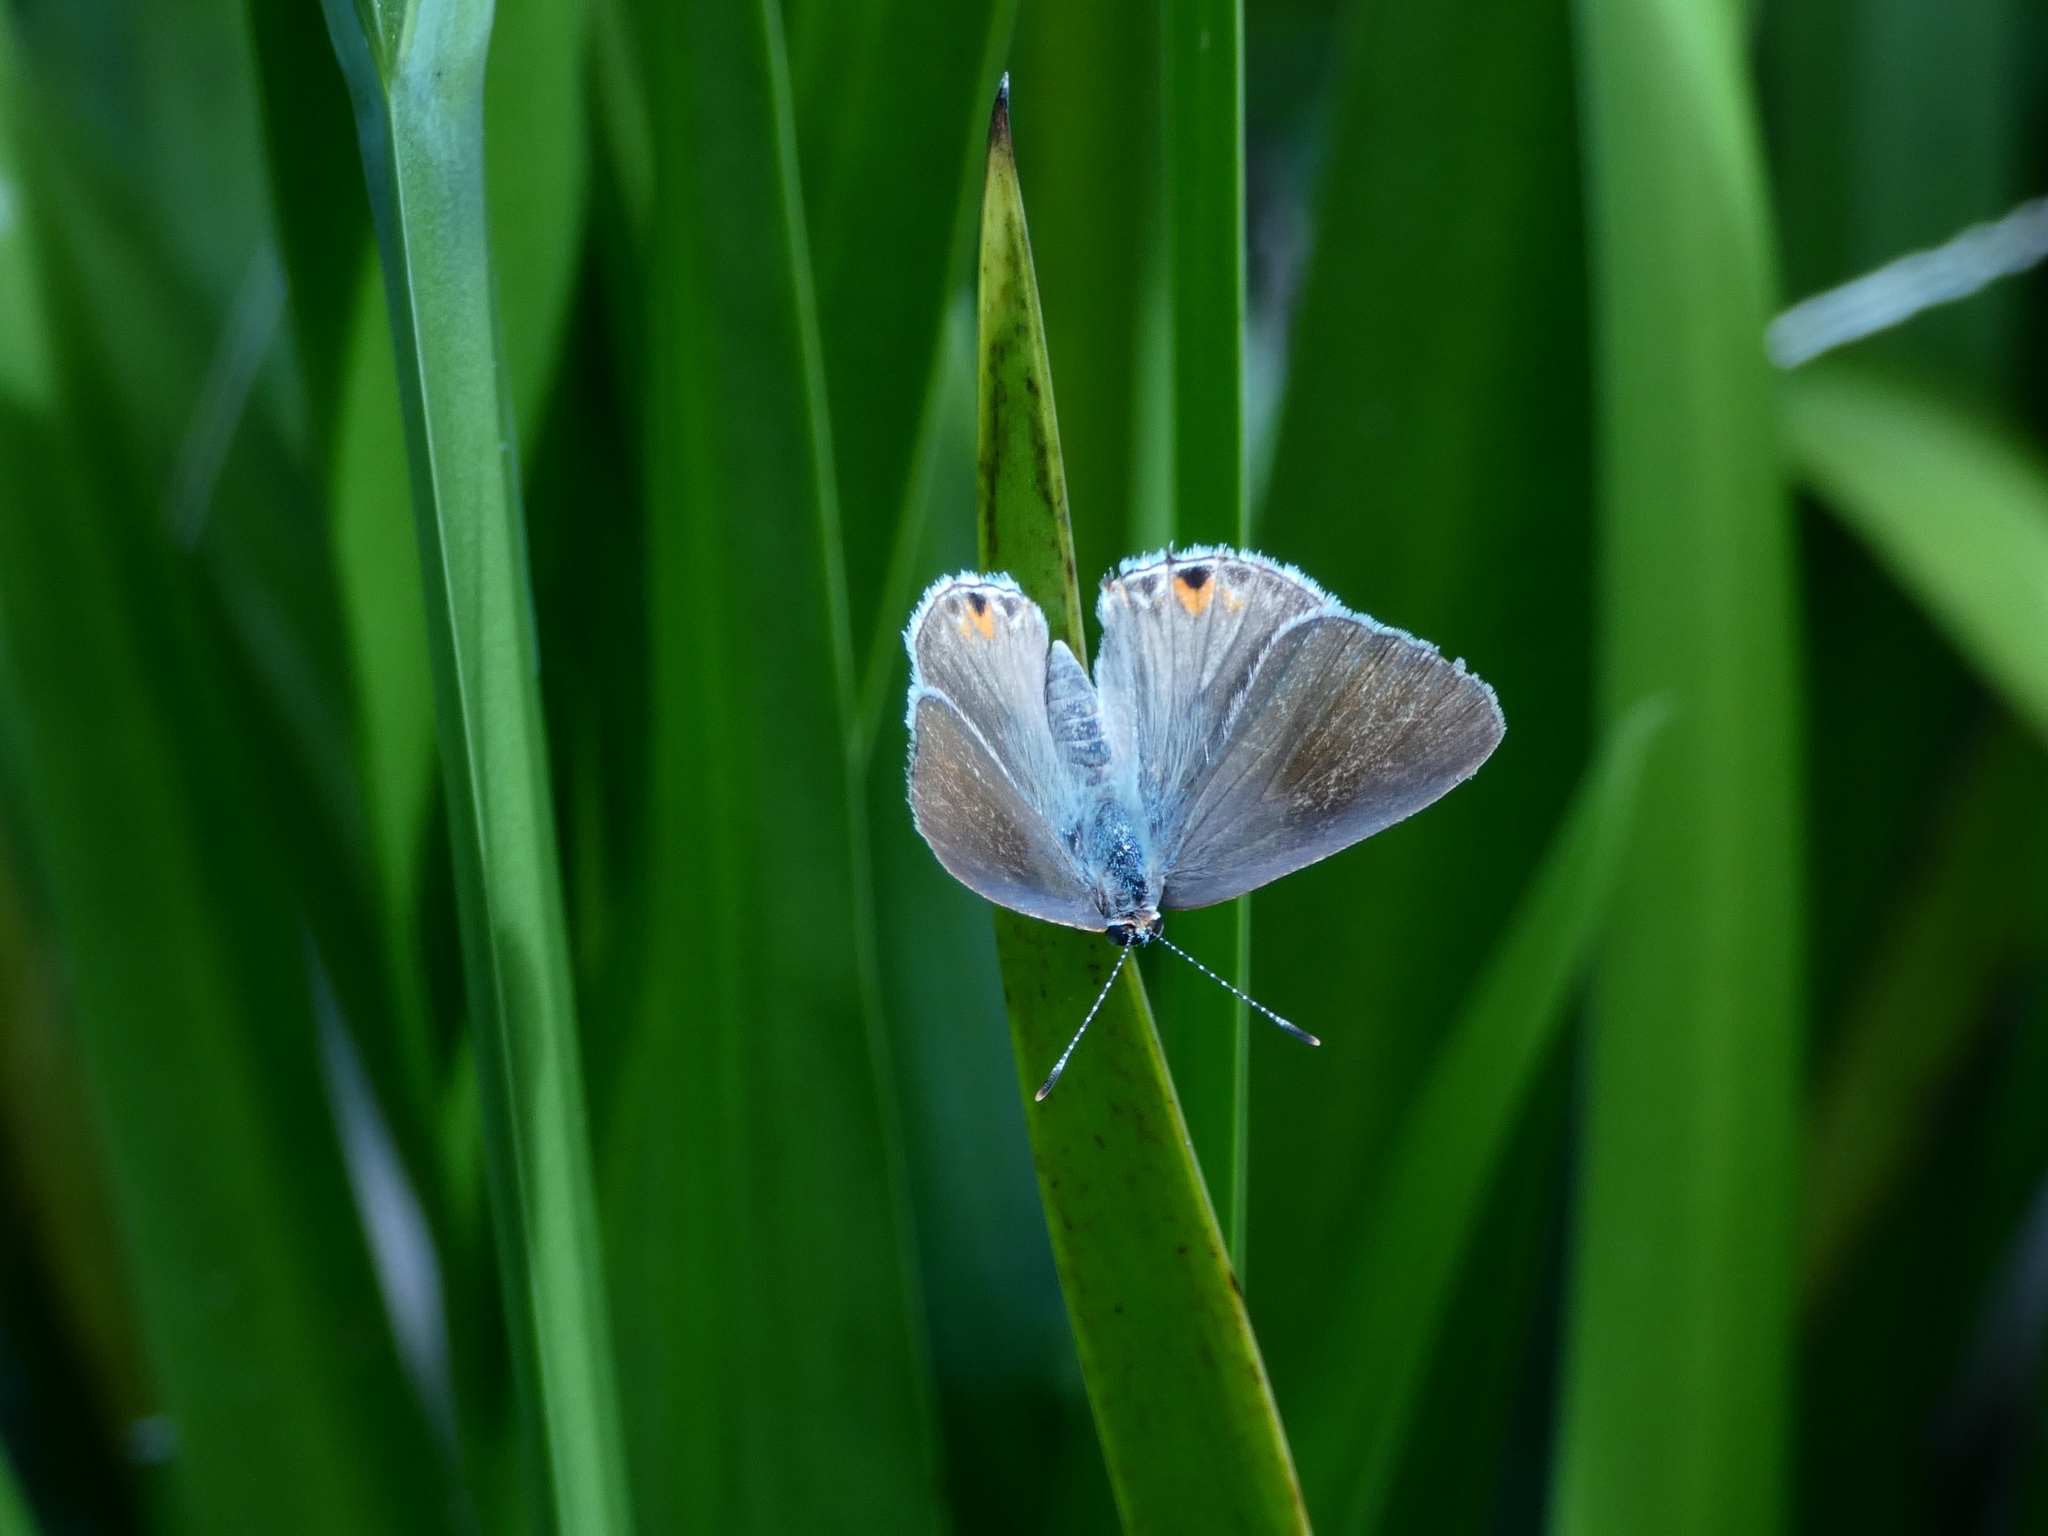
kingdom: Animalia
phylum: Arthropoda
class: Insecta
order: Lepidoptera
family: Lycaenidae
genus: Thecla
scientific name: Thecla rufofusca
